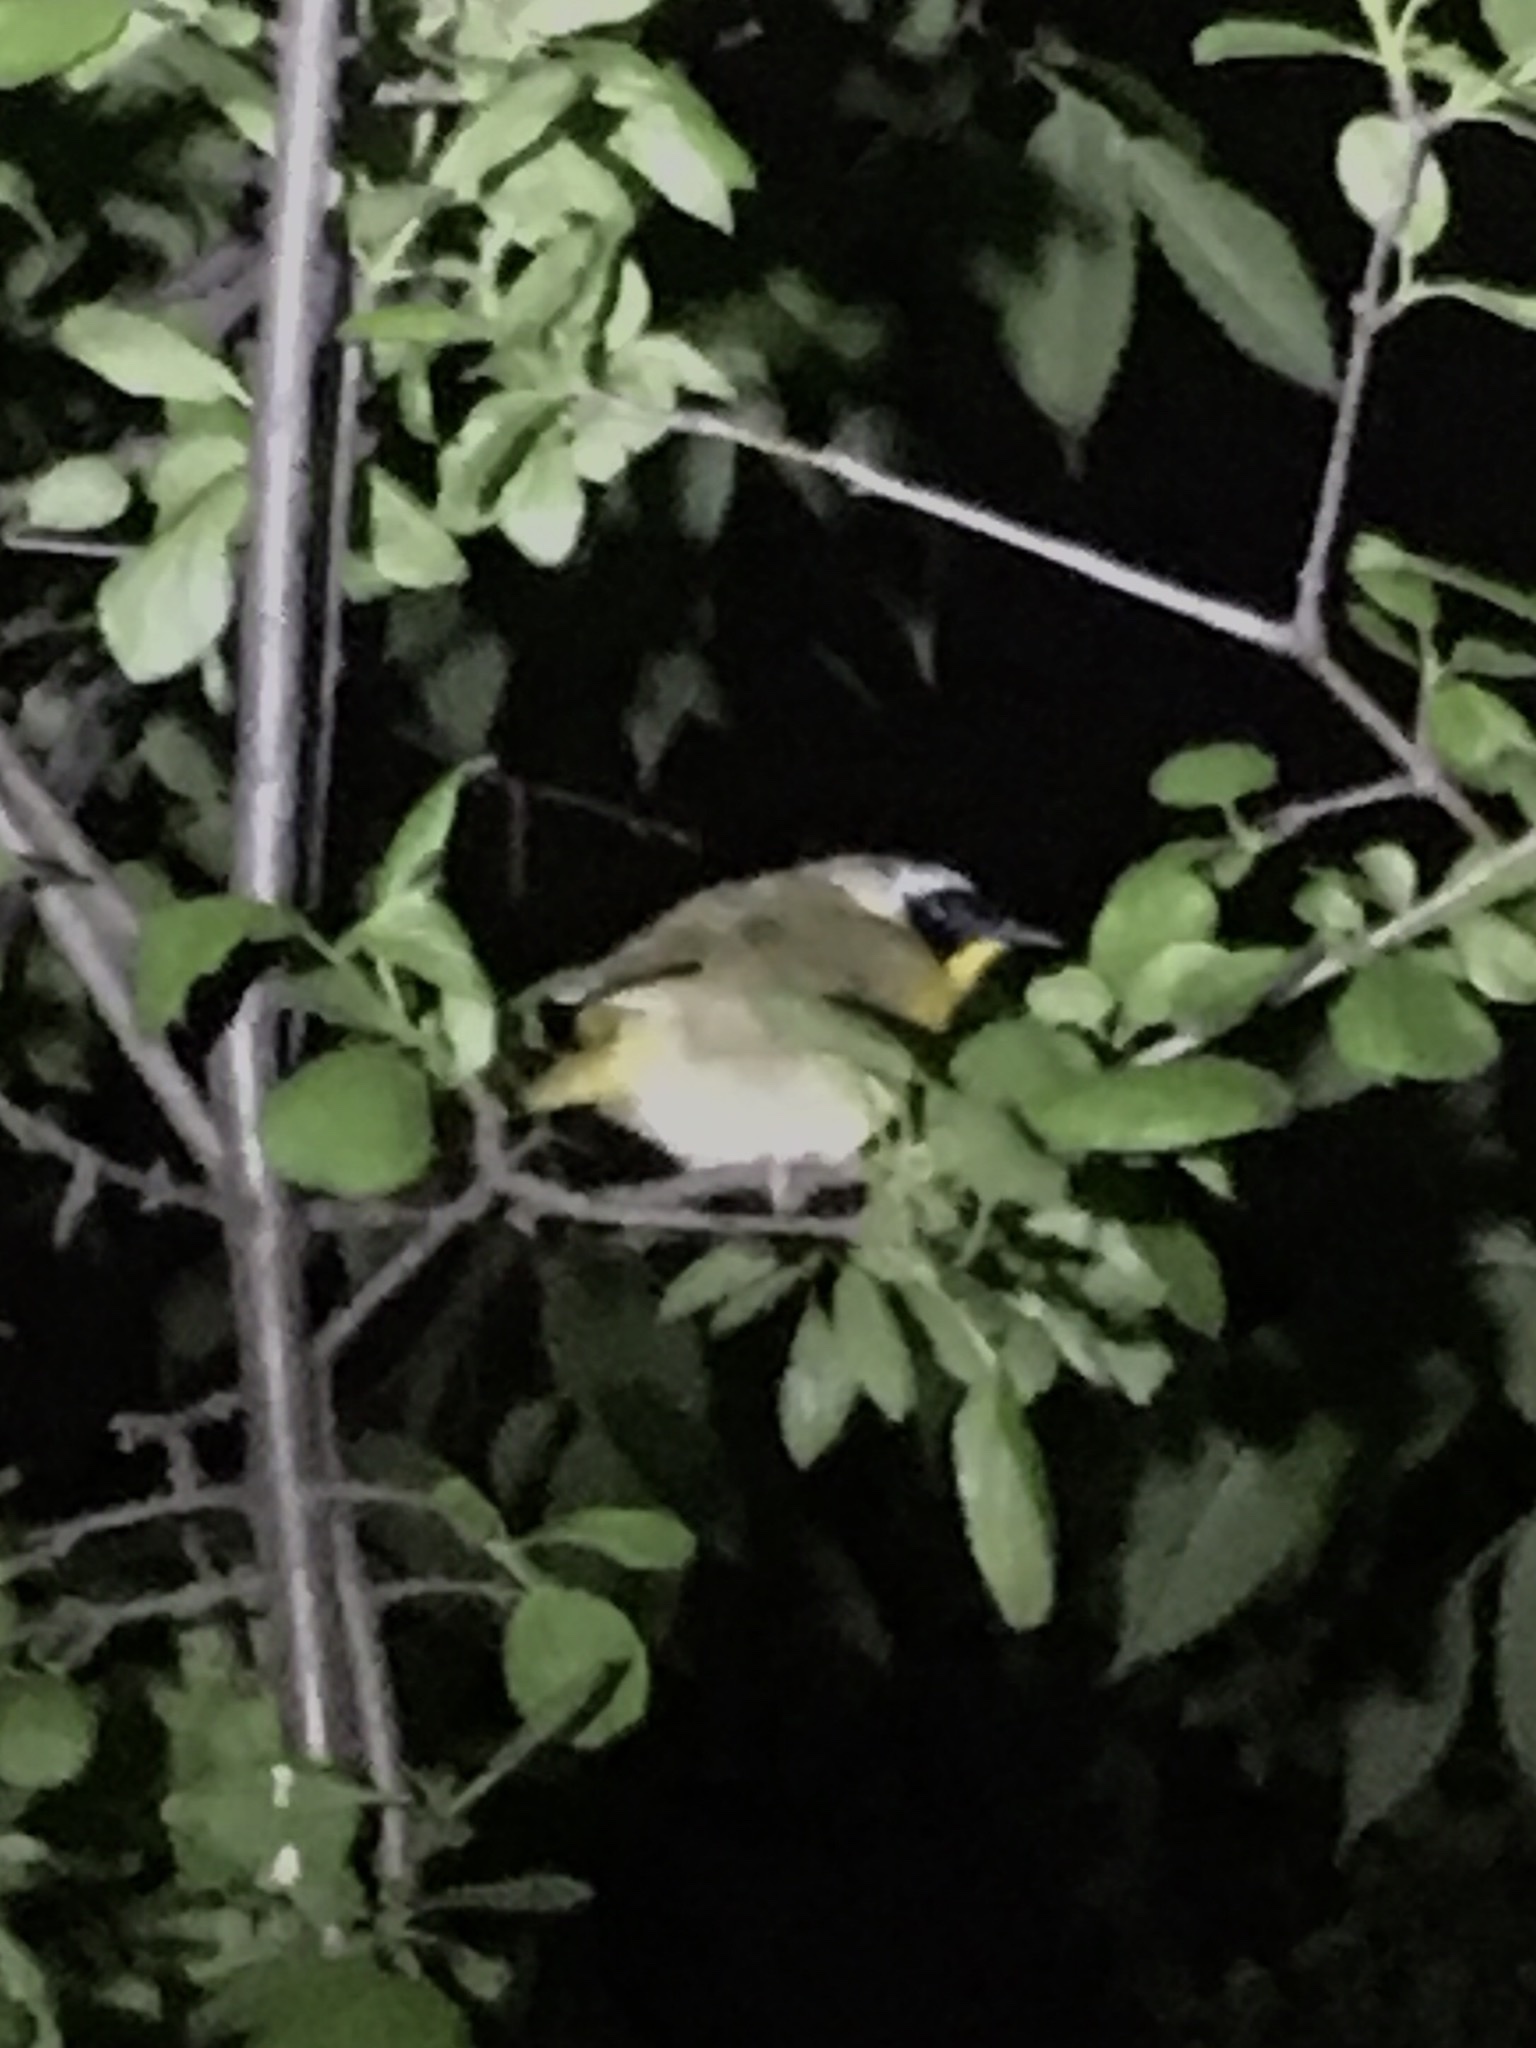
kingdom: Animalia
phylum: Chordata
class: Aves
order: Passeriformes
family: Parulidae
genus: Geothlypis
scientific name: Geothlypis trichas
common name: Common yellowthroat
